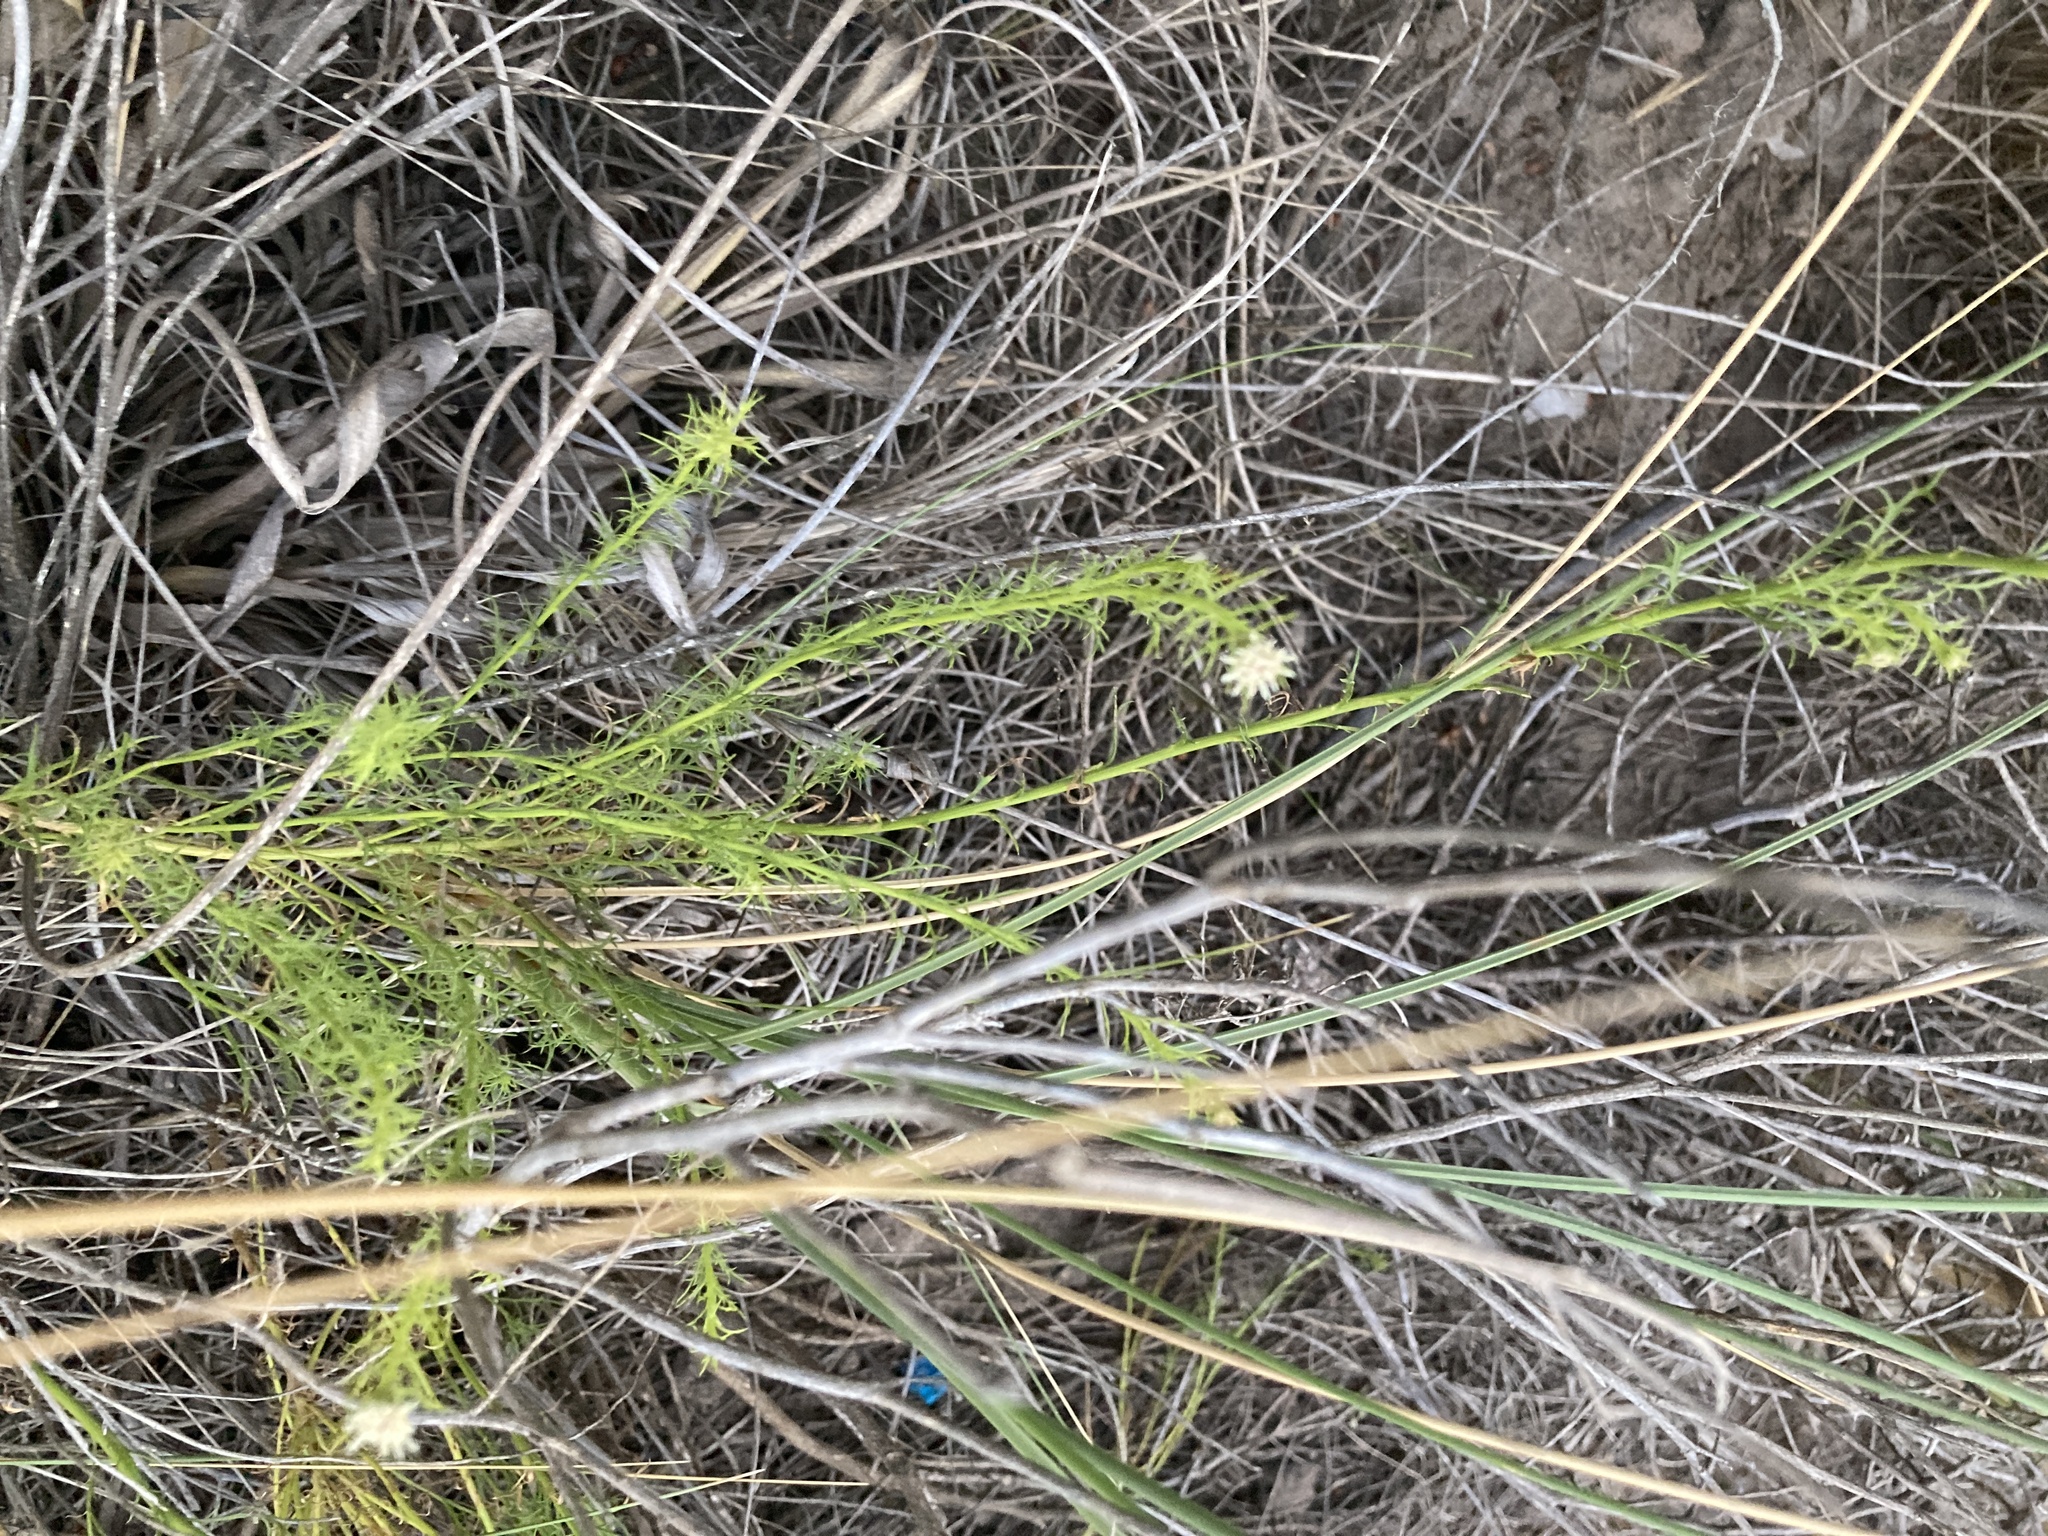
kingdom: Plantae
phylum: Tracheophyta
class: Magnoliopsida
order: Asterales
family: Asteraceae
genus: Baccharis
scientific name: Baccharis ulicina
